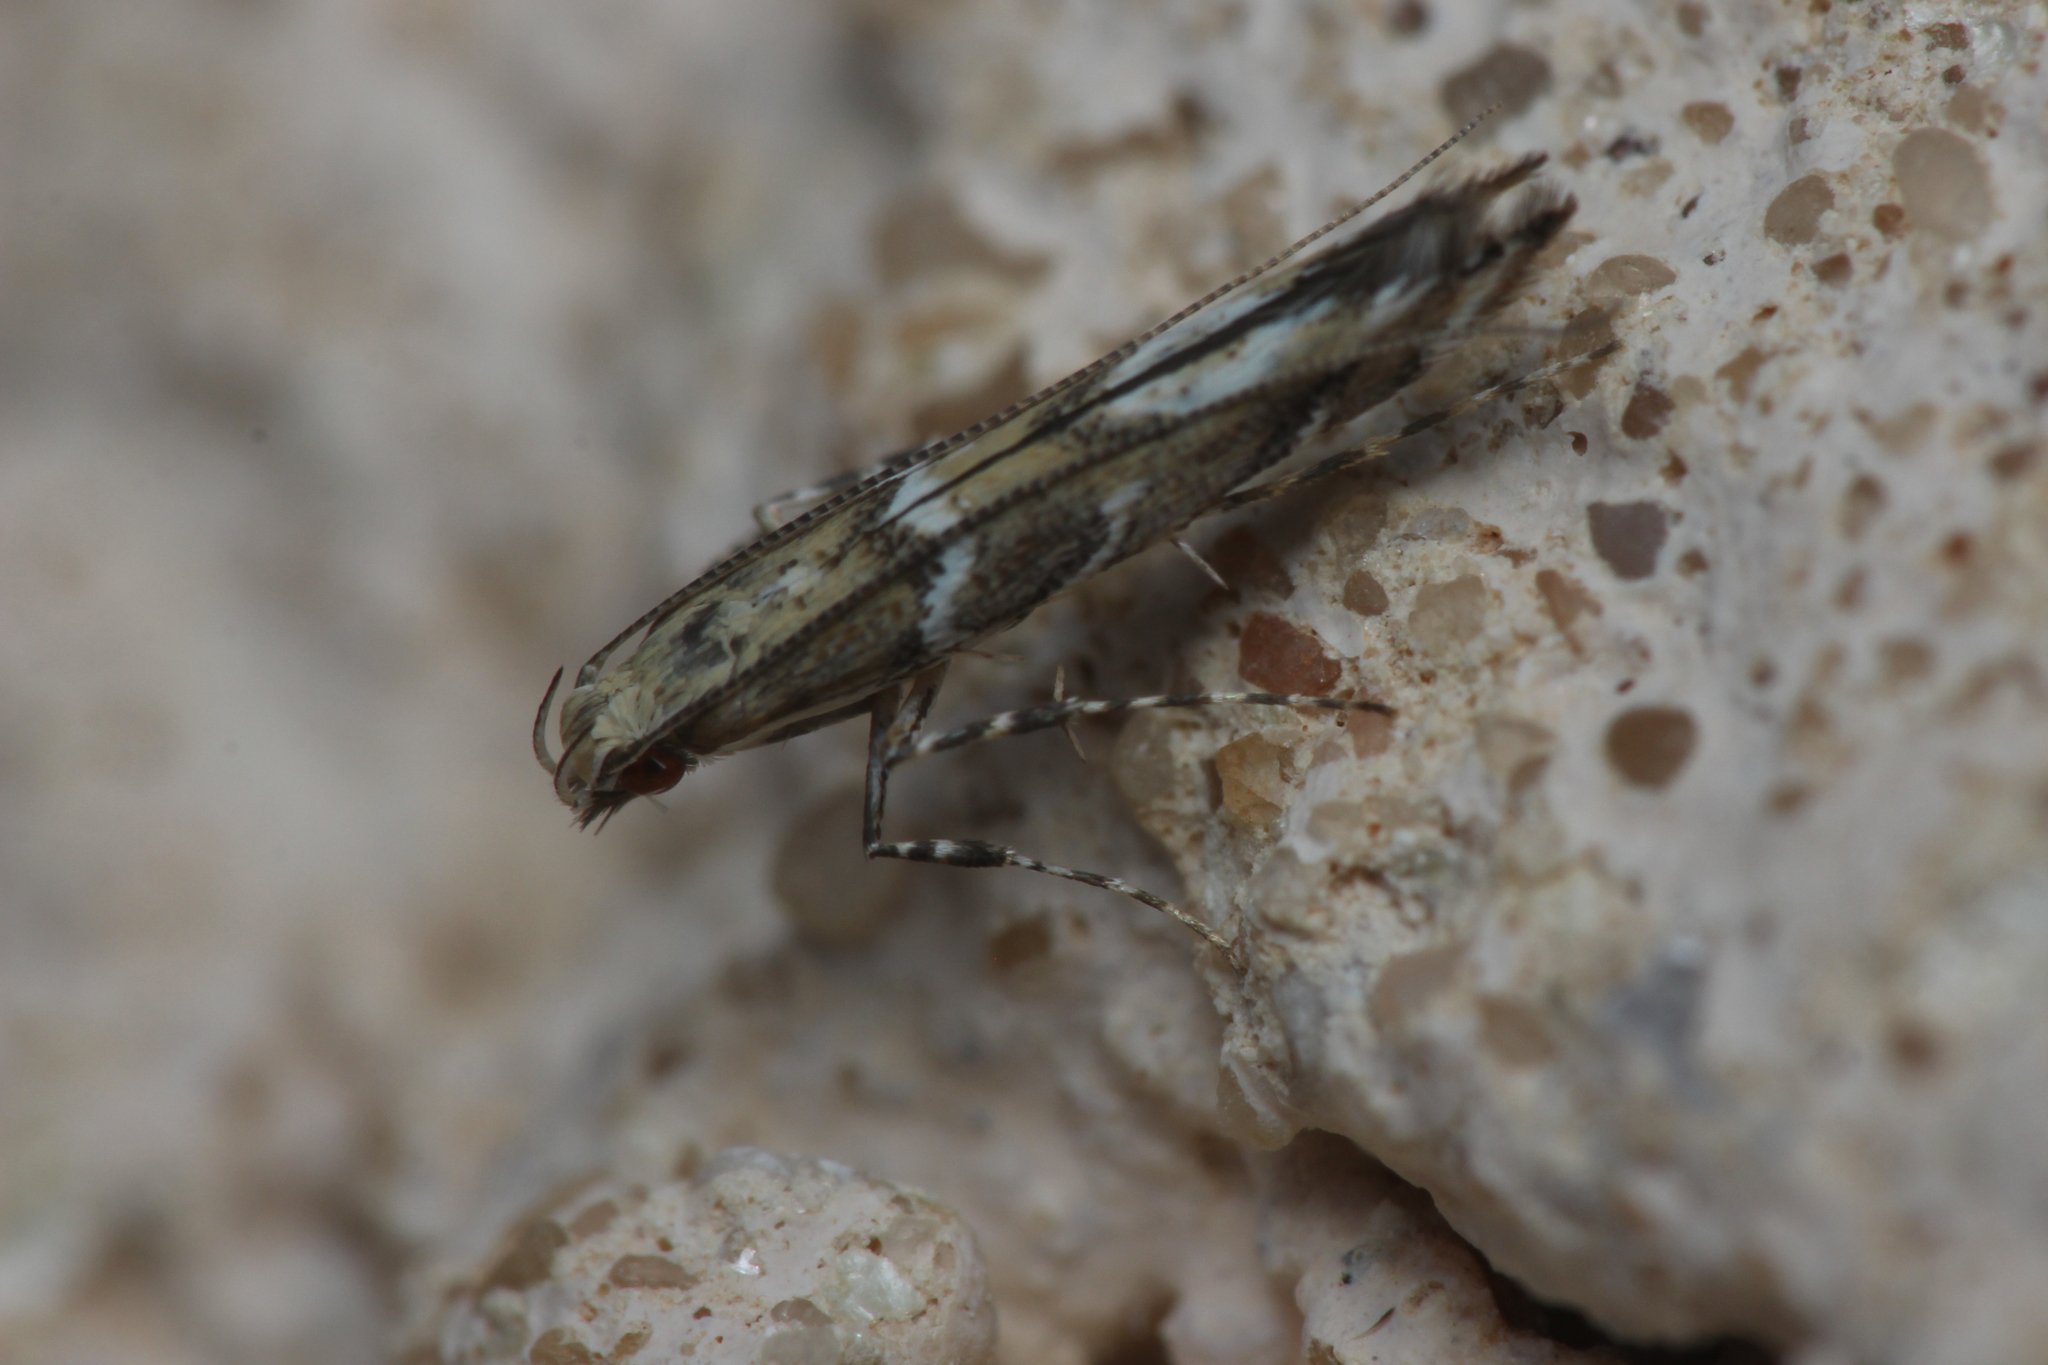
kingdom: Animalia
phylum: Arthropoda
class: Insecta
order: Lepidoptera
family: Gracillariidae
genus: Acrocercops
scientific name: Acrocercops brongniardella
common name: Brown oak slender
